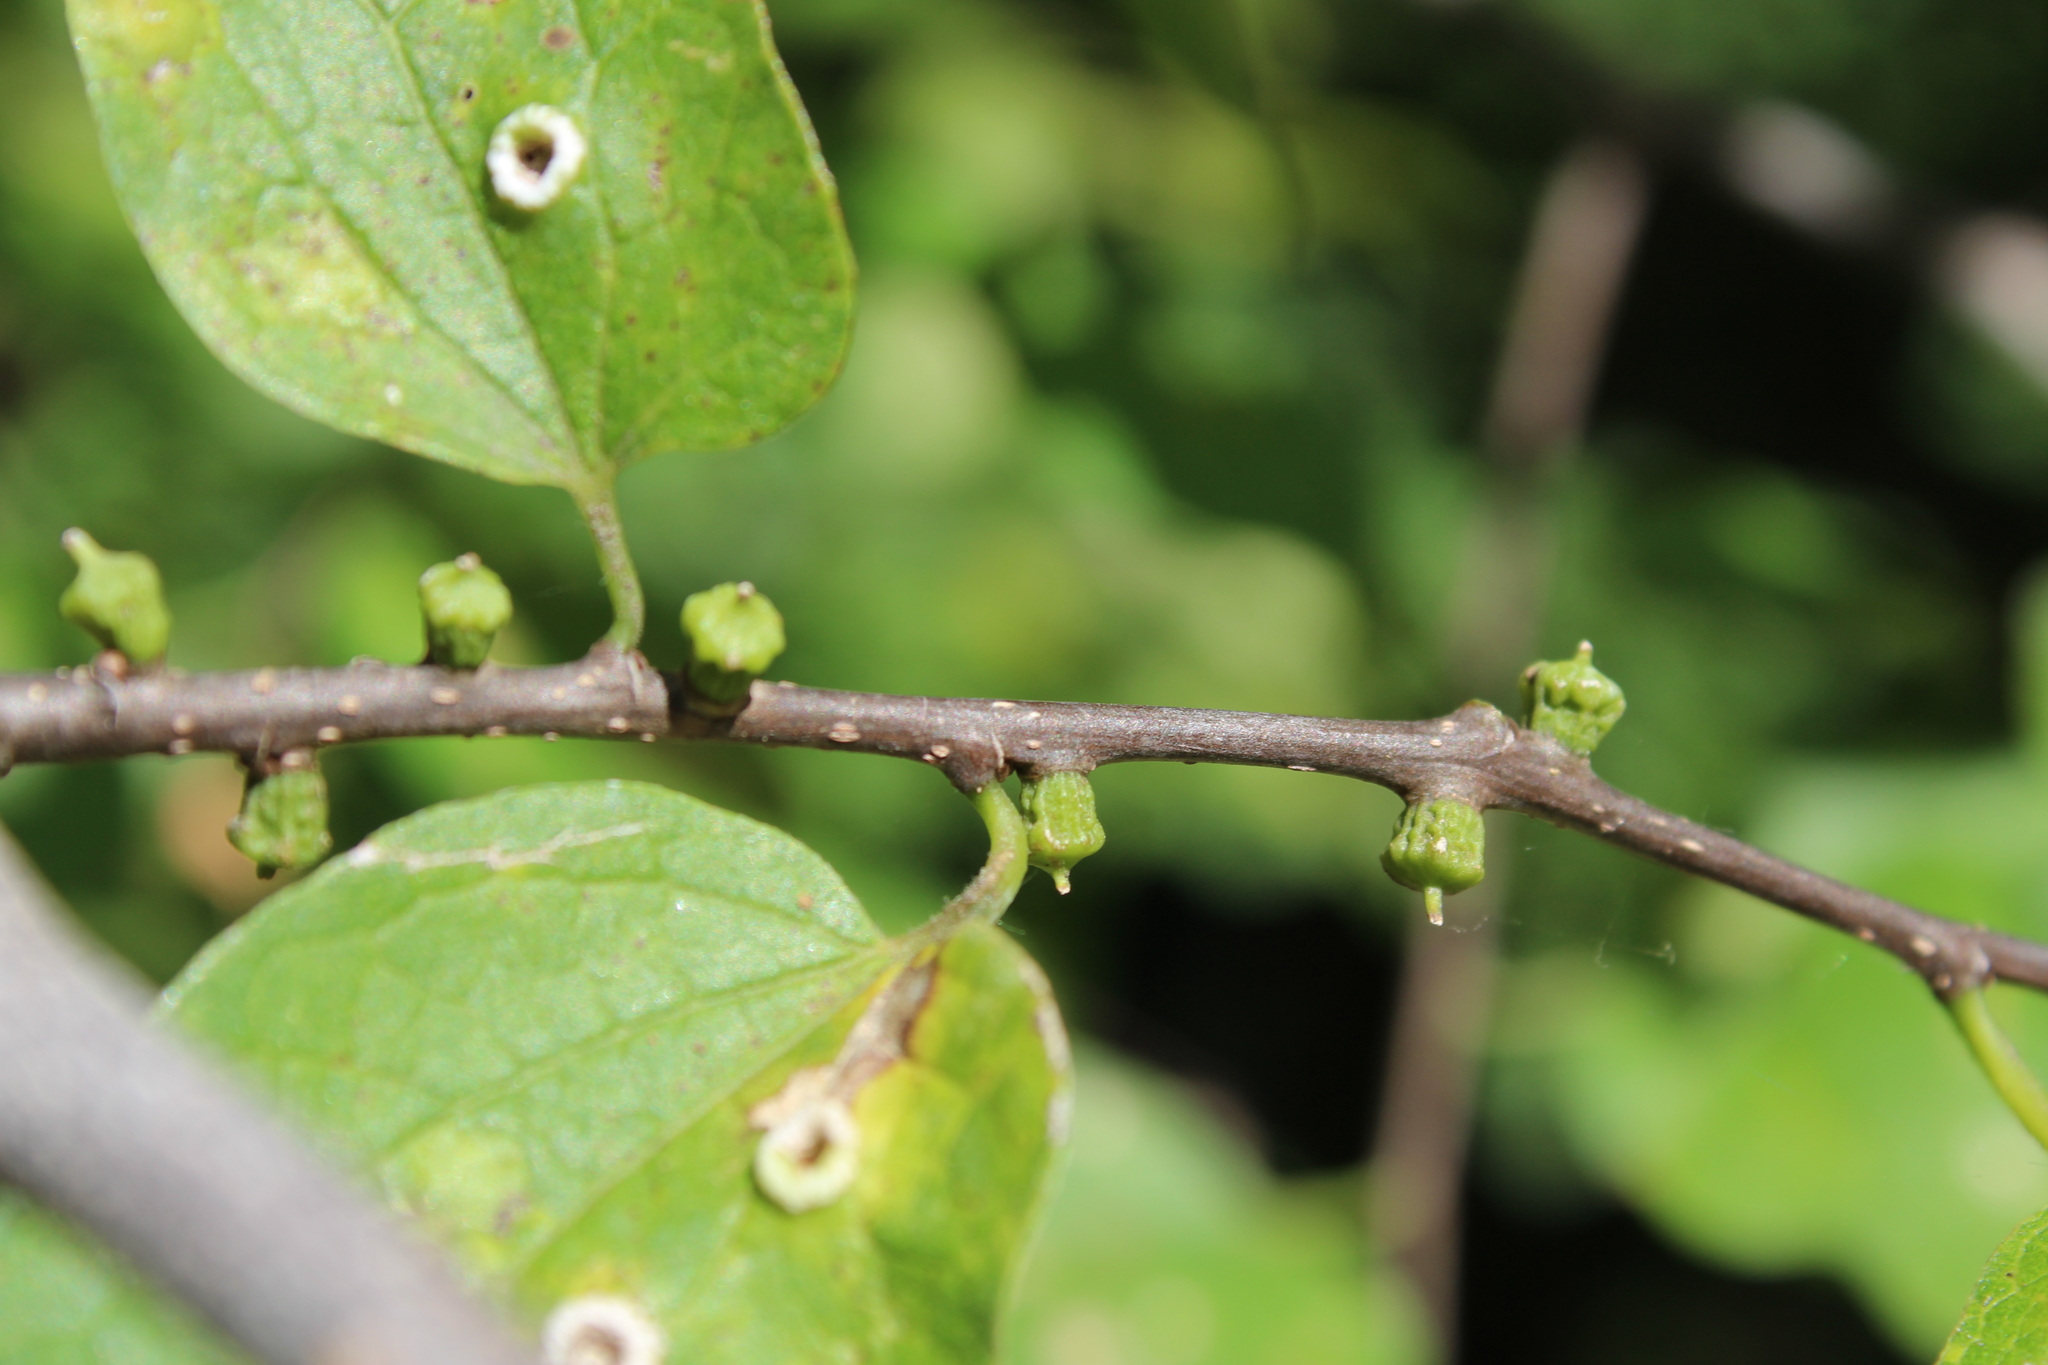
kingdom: Animalia
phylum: Arthropoda
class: Insecta
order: Diptera
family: Cecidomyiidae
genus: Celticecis
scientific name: Celticecis ramicola
